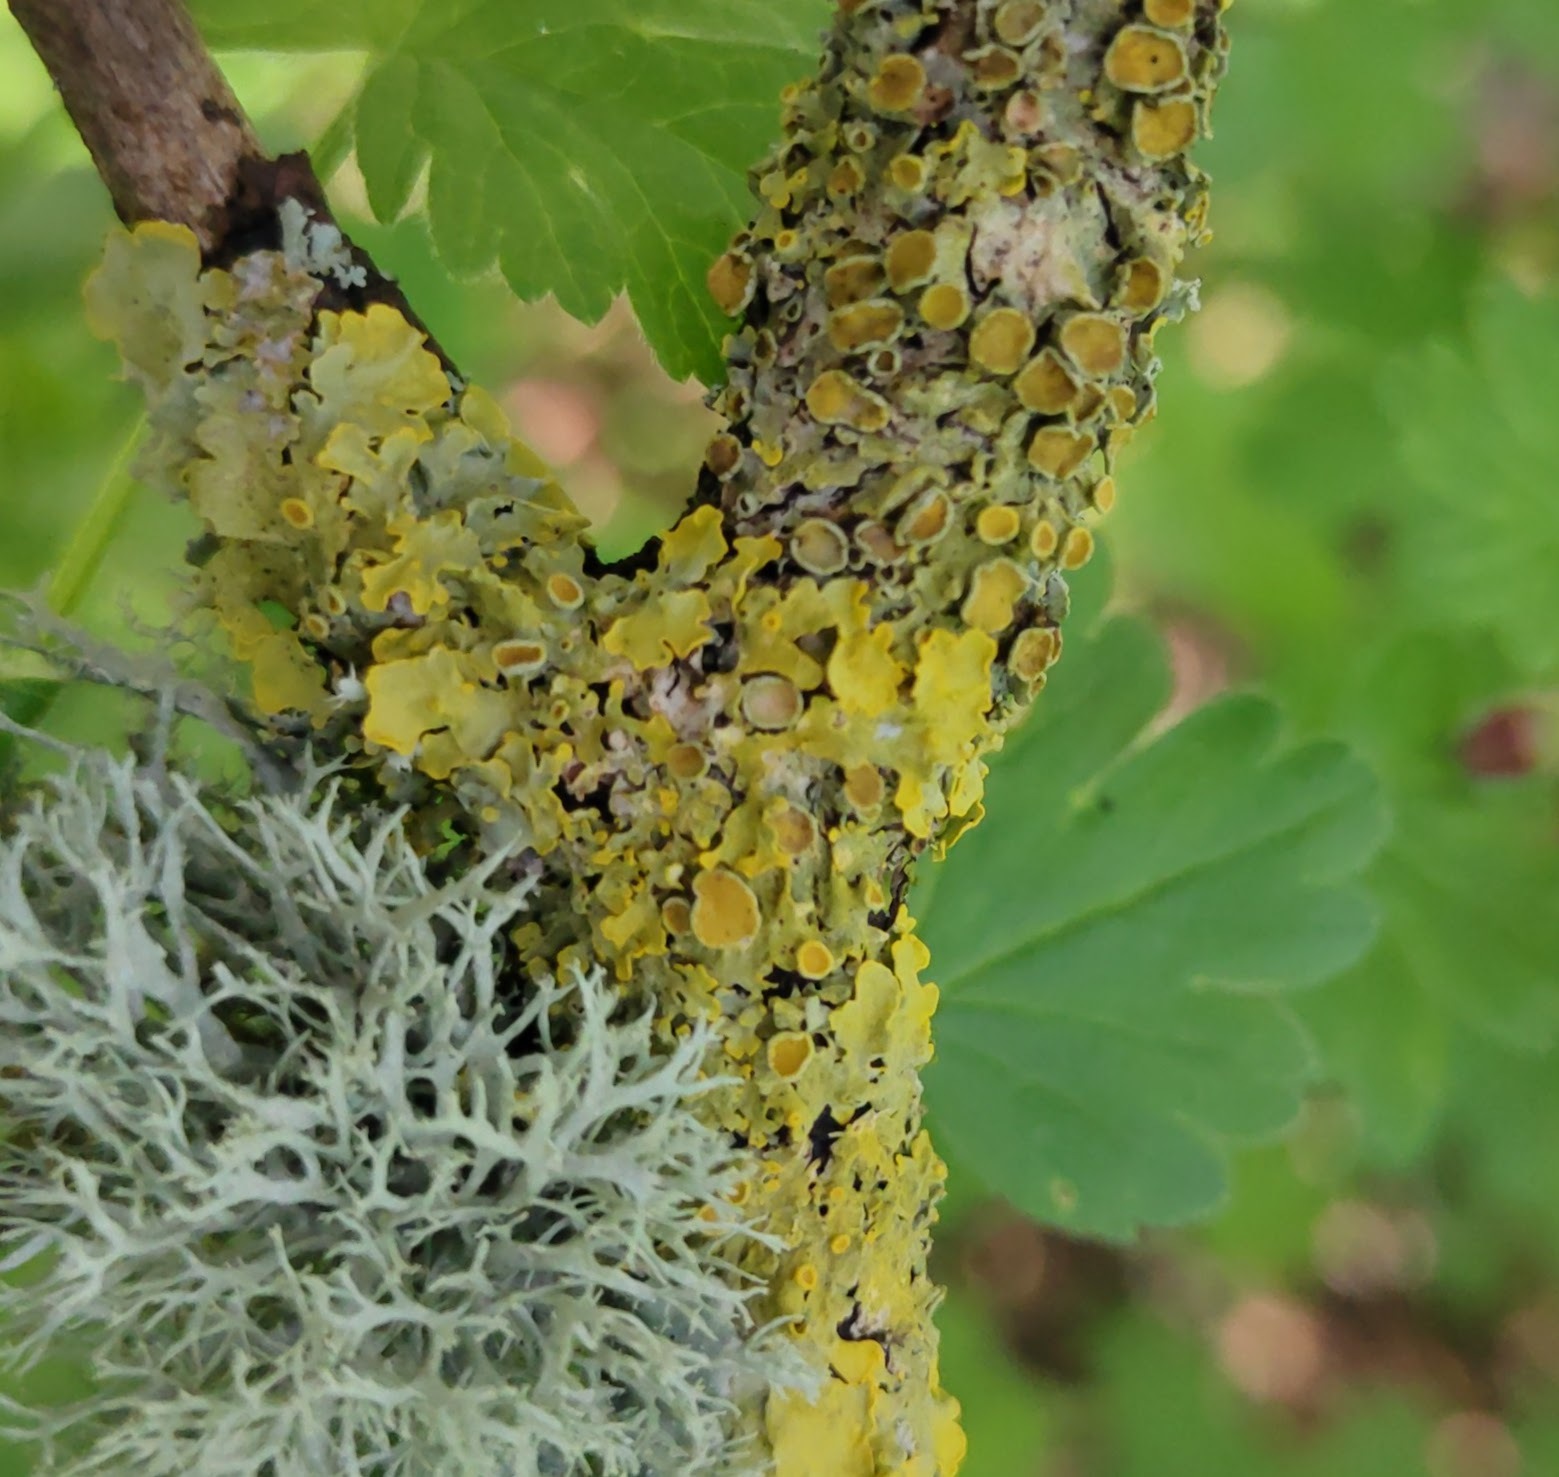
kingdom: Fungi
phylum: Ascomycota
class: Lecanoromycetes
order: Teloschistales
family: Teloschistaceae
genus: Xanthoria
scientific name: Xanthoria parietina
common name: Common orange lichen
